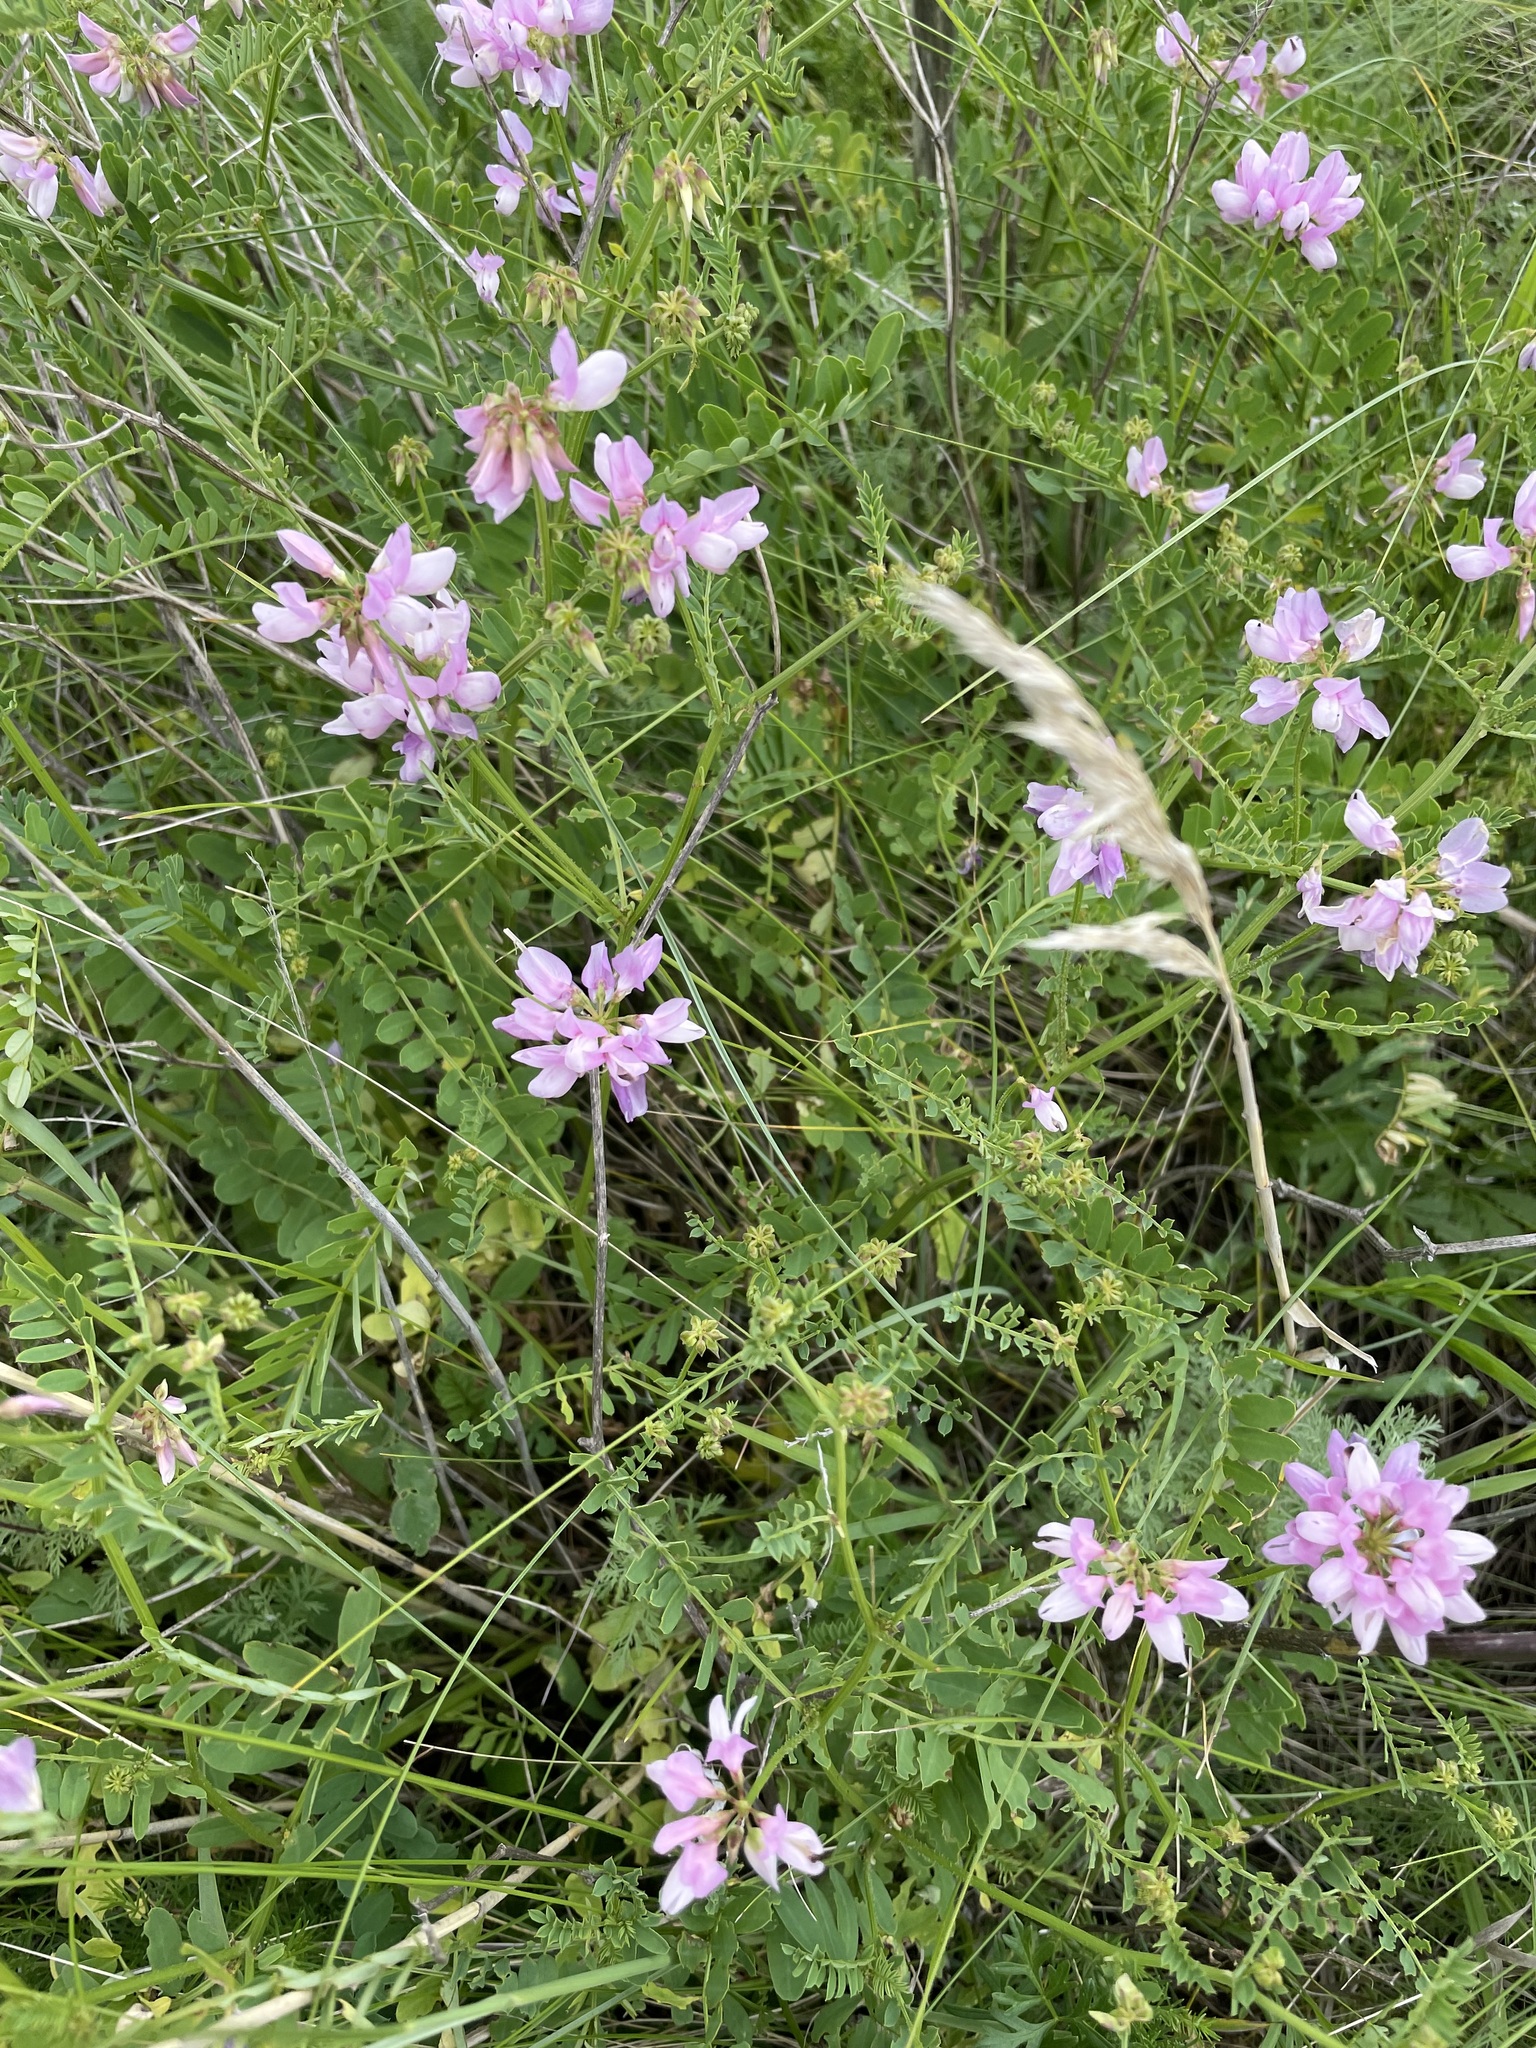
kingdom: Plantae
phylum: Tracheophyta
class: Magnoliopsida
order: Fabales
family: Fabaceae
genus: Coronilla
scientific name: Coronilla varia
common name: Crownvetch
